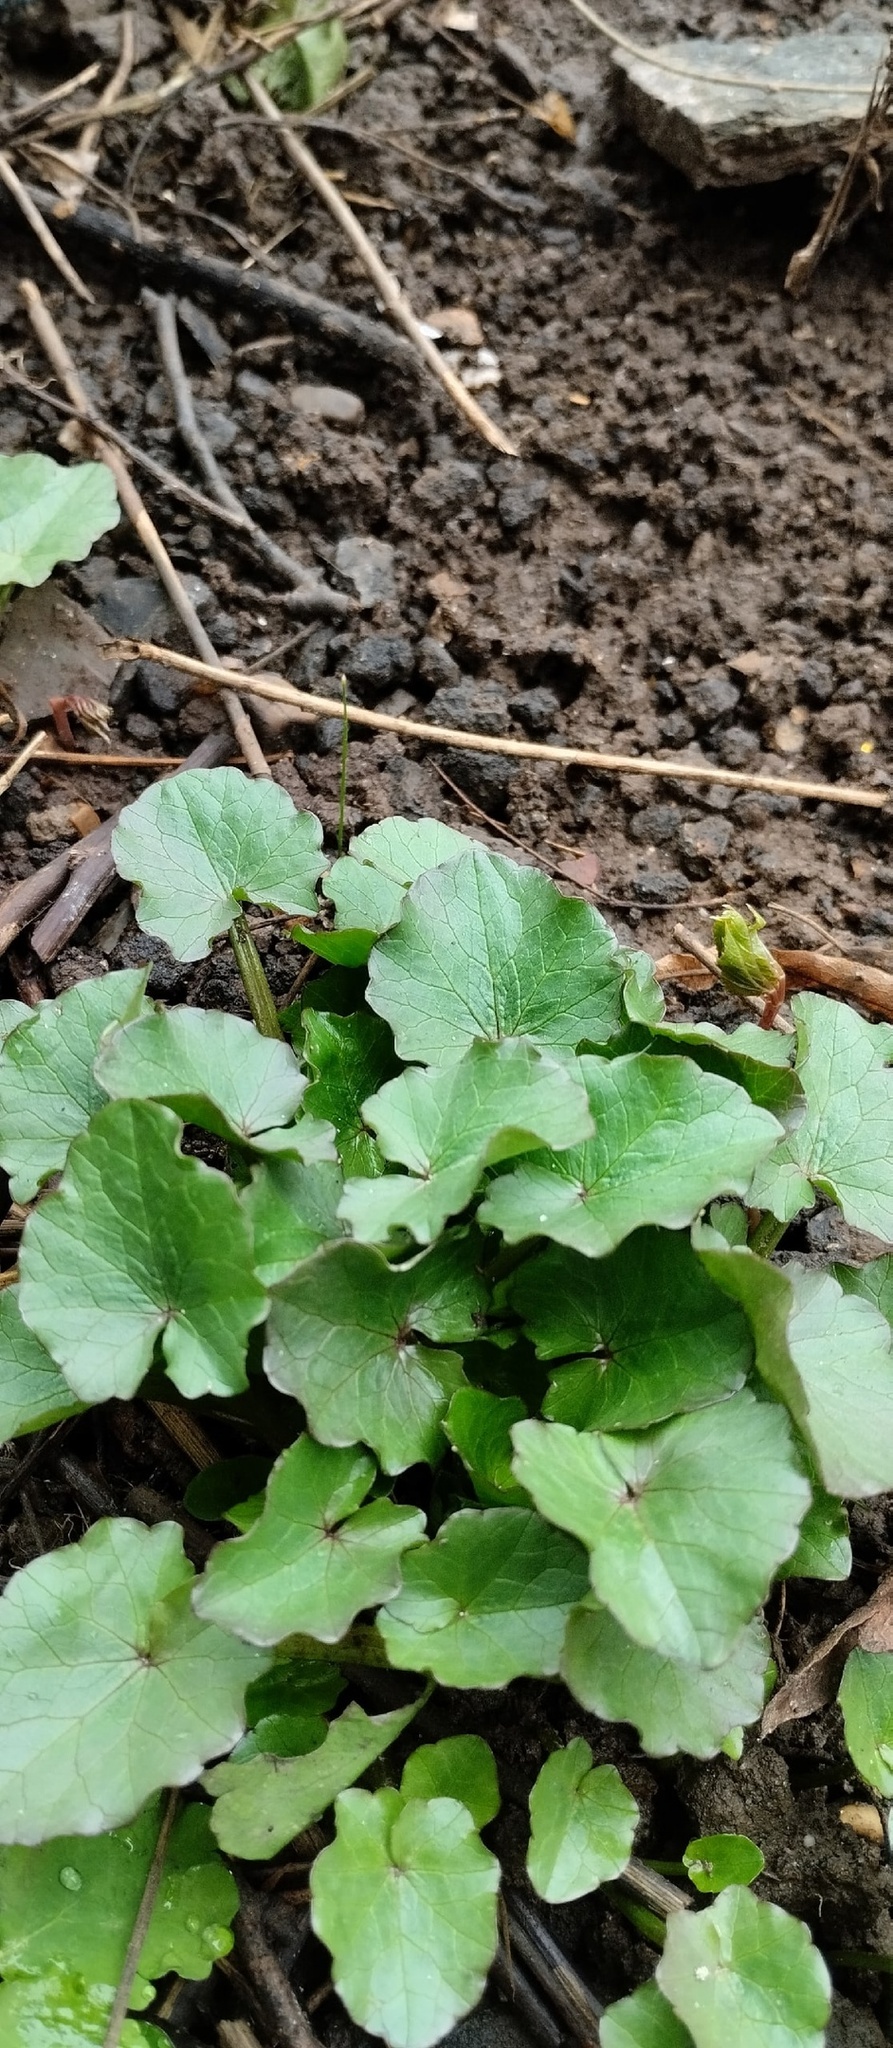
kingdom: Plantae
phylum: Tracheophyta
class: Magnoliopsida
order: Ranunculales
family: Ranunculaceae
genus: Ficaria
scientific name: Ficaria verna
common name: Lesser celandine
